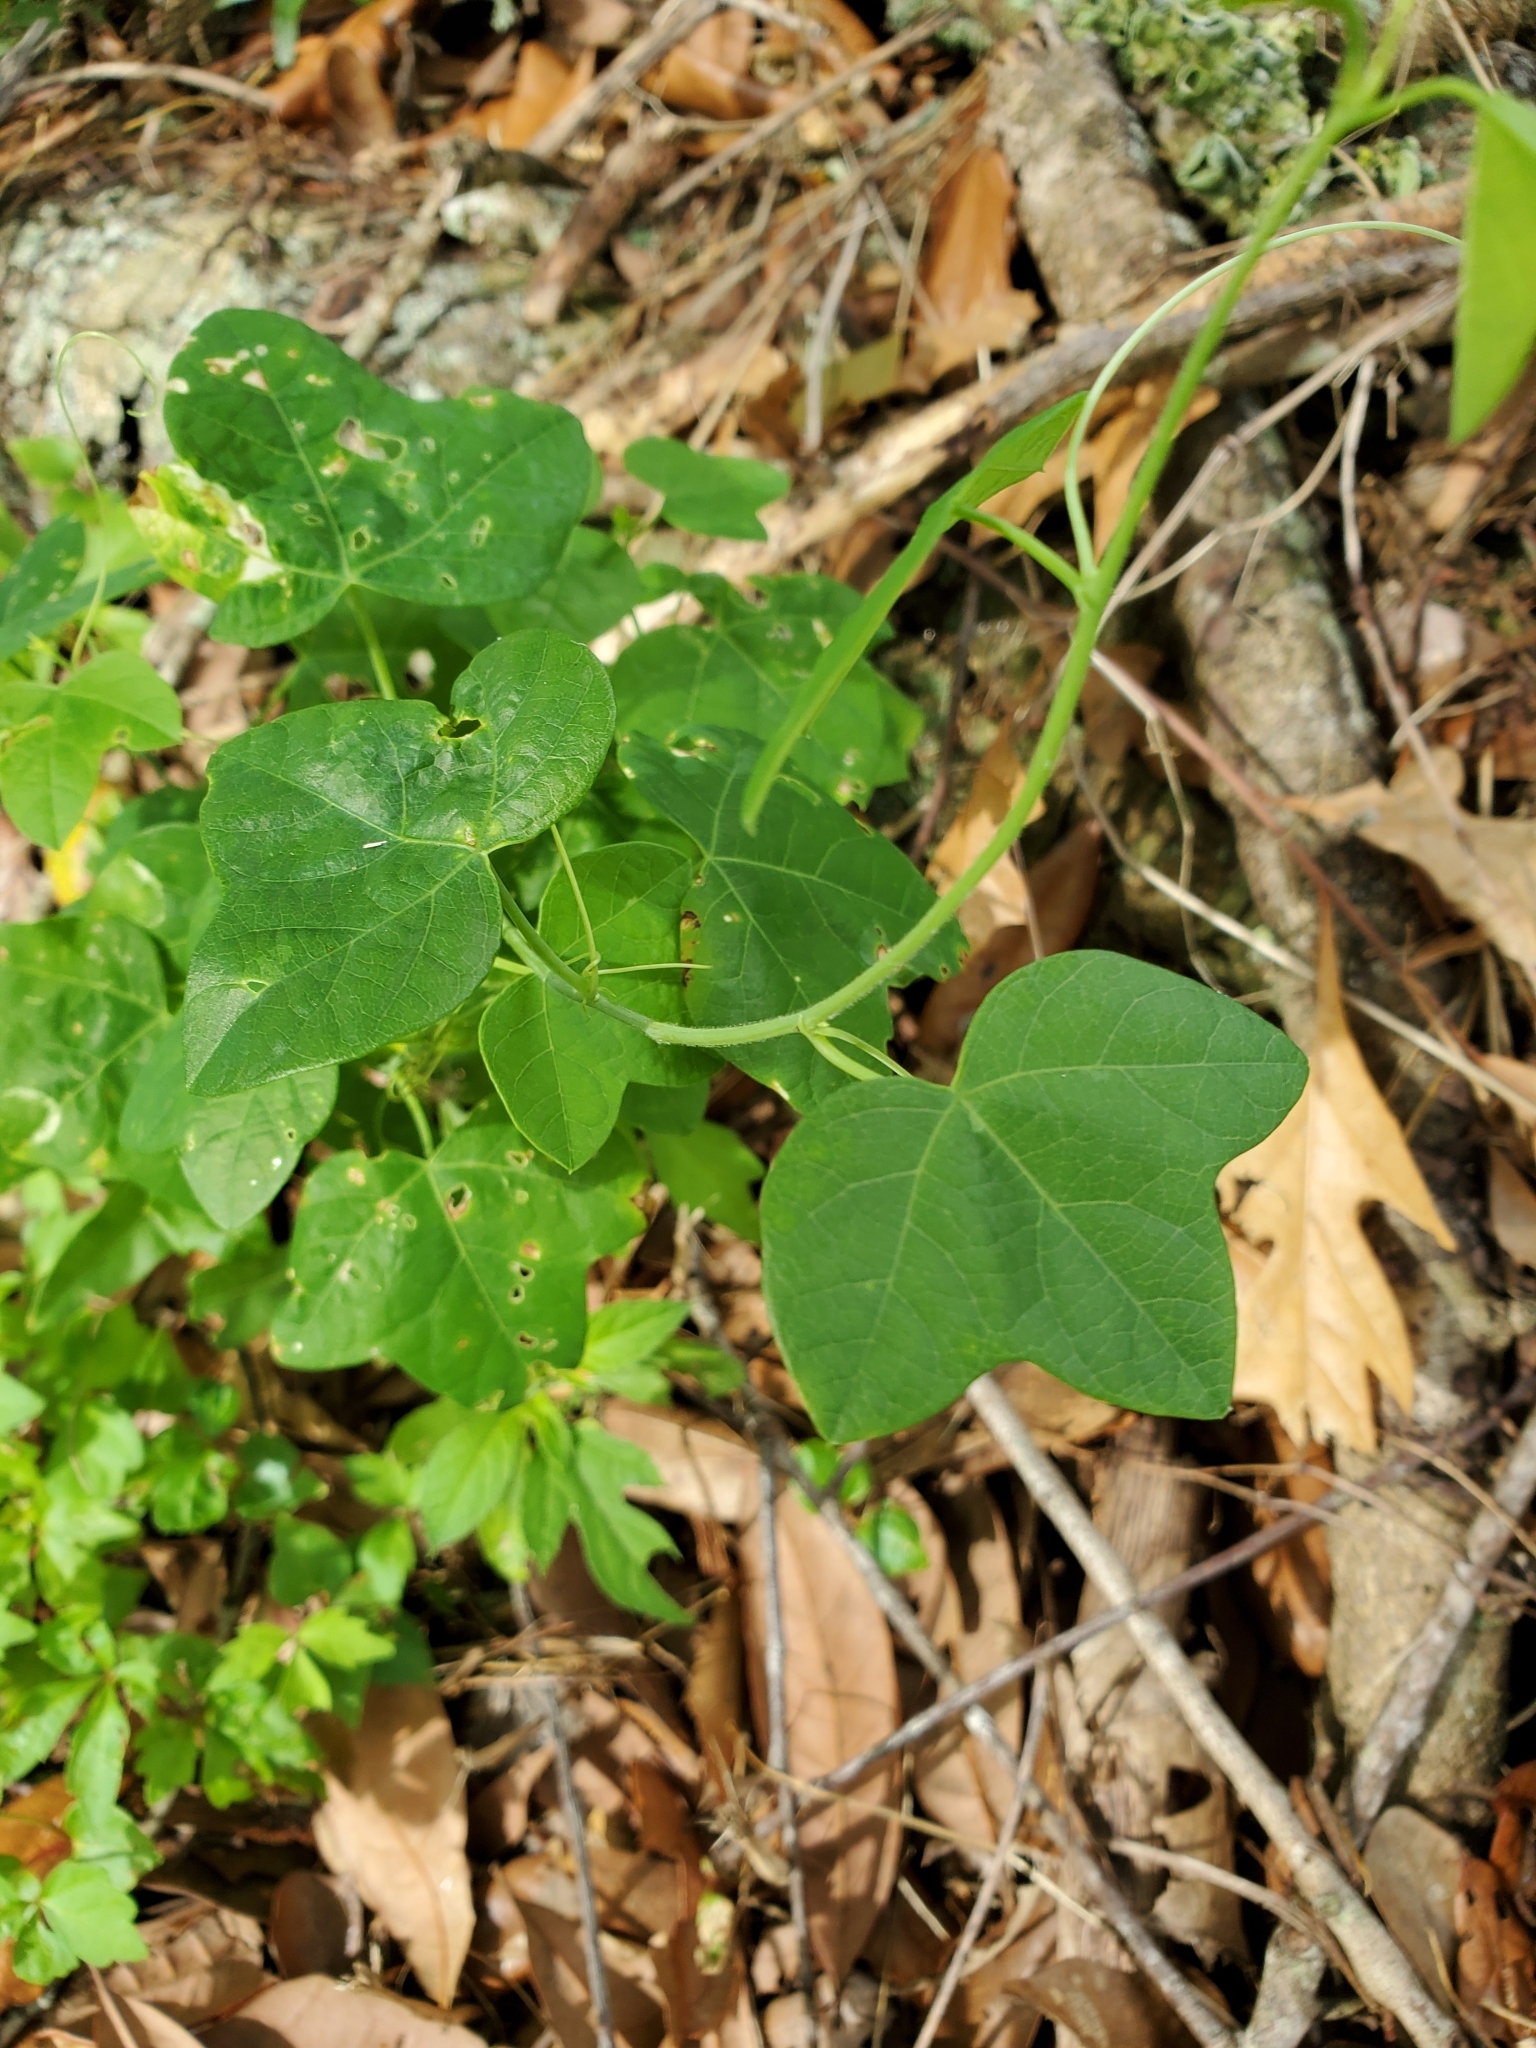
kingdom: Plantae
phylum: Tracheophyta
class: Magnoliopsida
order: Malpighiales
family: Passifloraceae
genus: Passiflora
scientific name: Passiflora lutea
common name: Yellow passionflower
